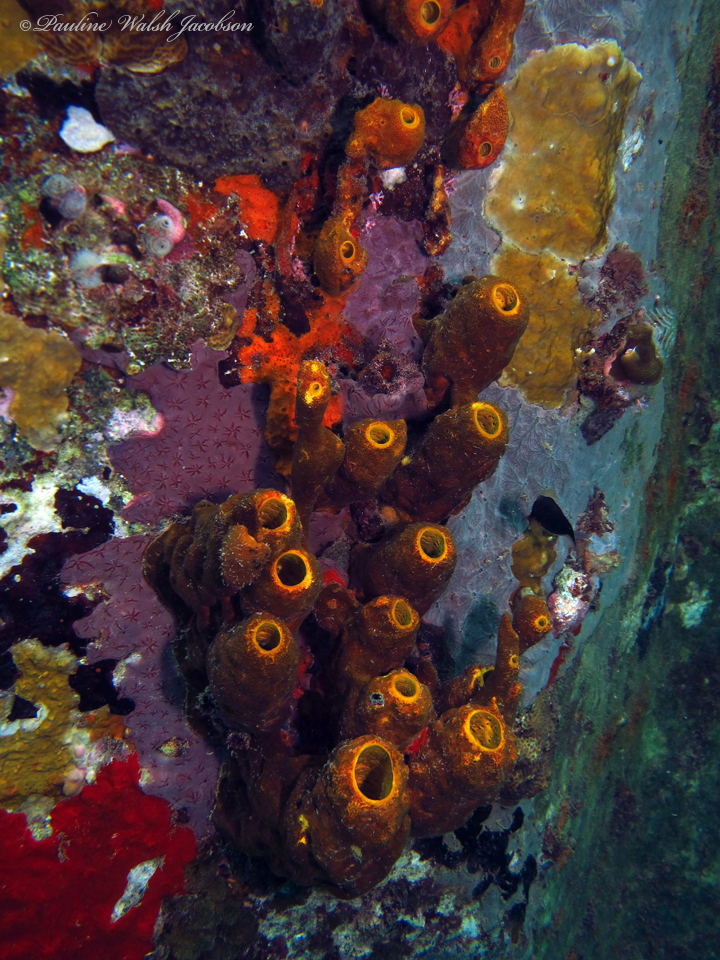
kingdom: Animalia
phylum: Porifera
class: Demospongiae
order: Verongiida
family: Aplysinidae
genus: Aplysina
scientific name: Aplysina fistularis
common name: Candle sponge
